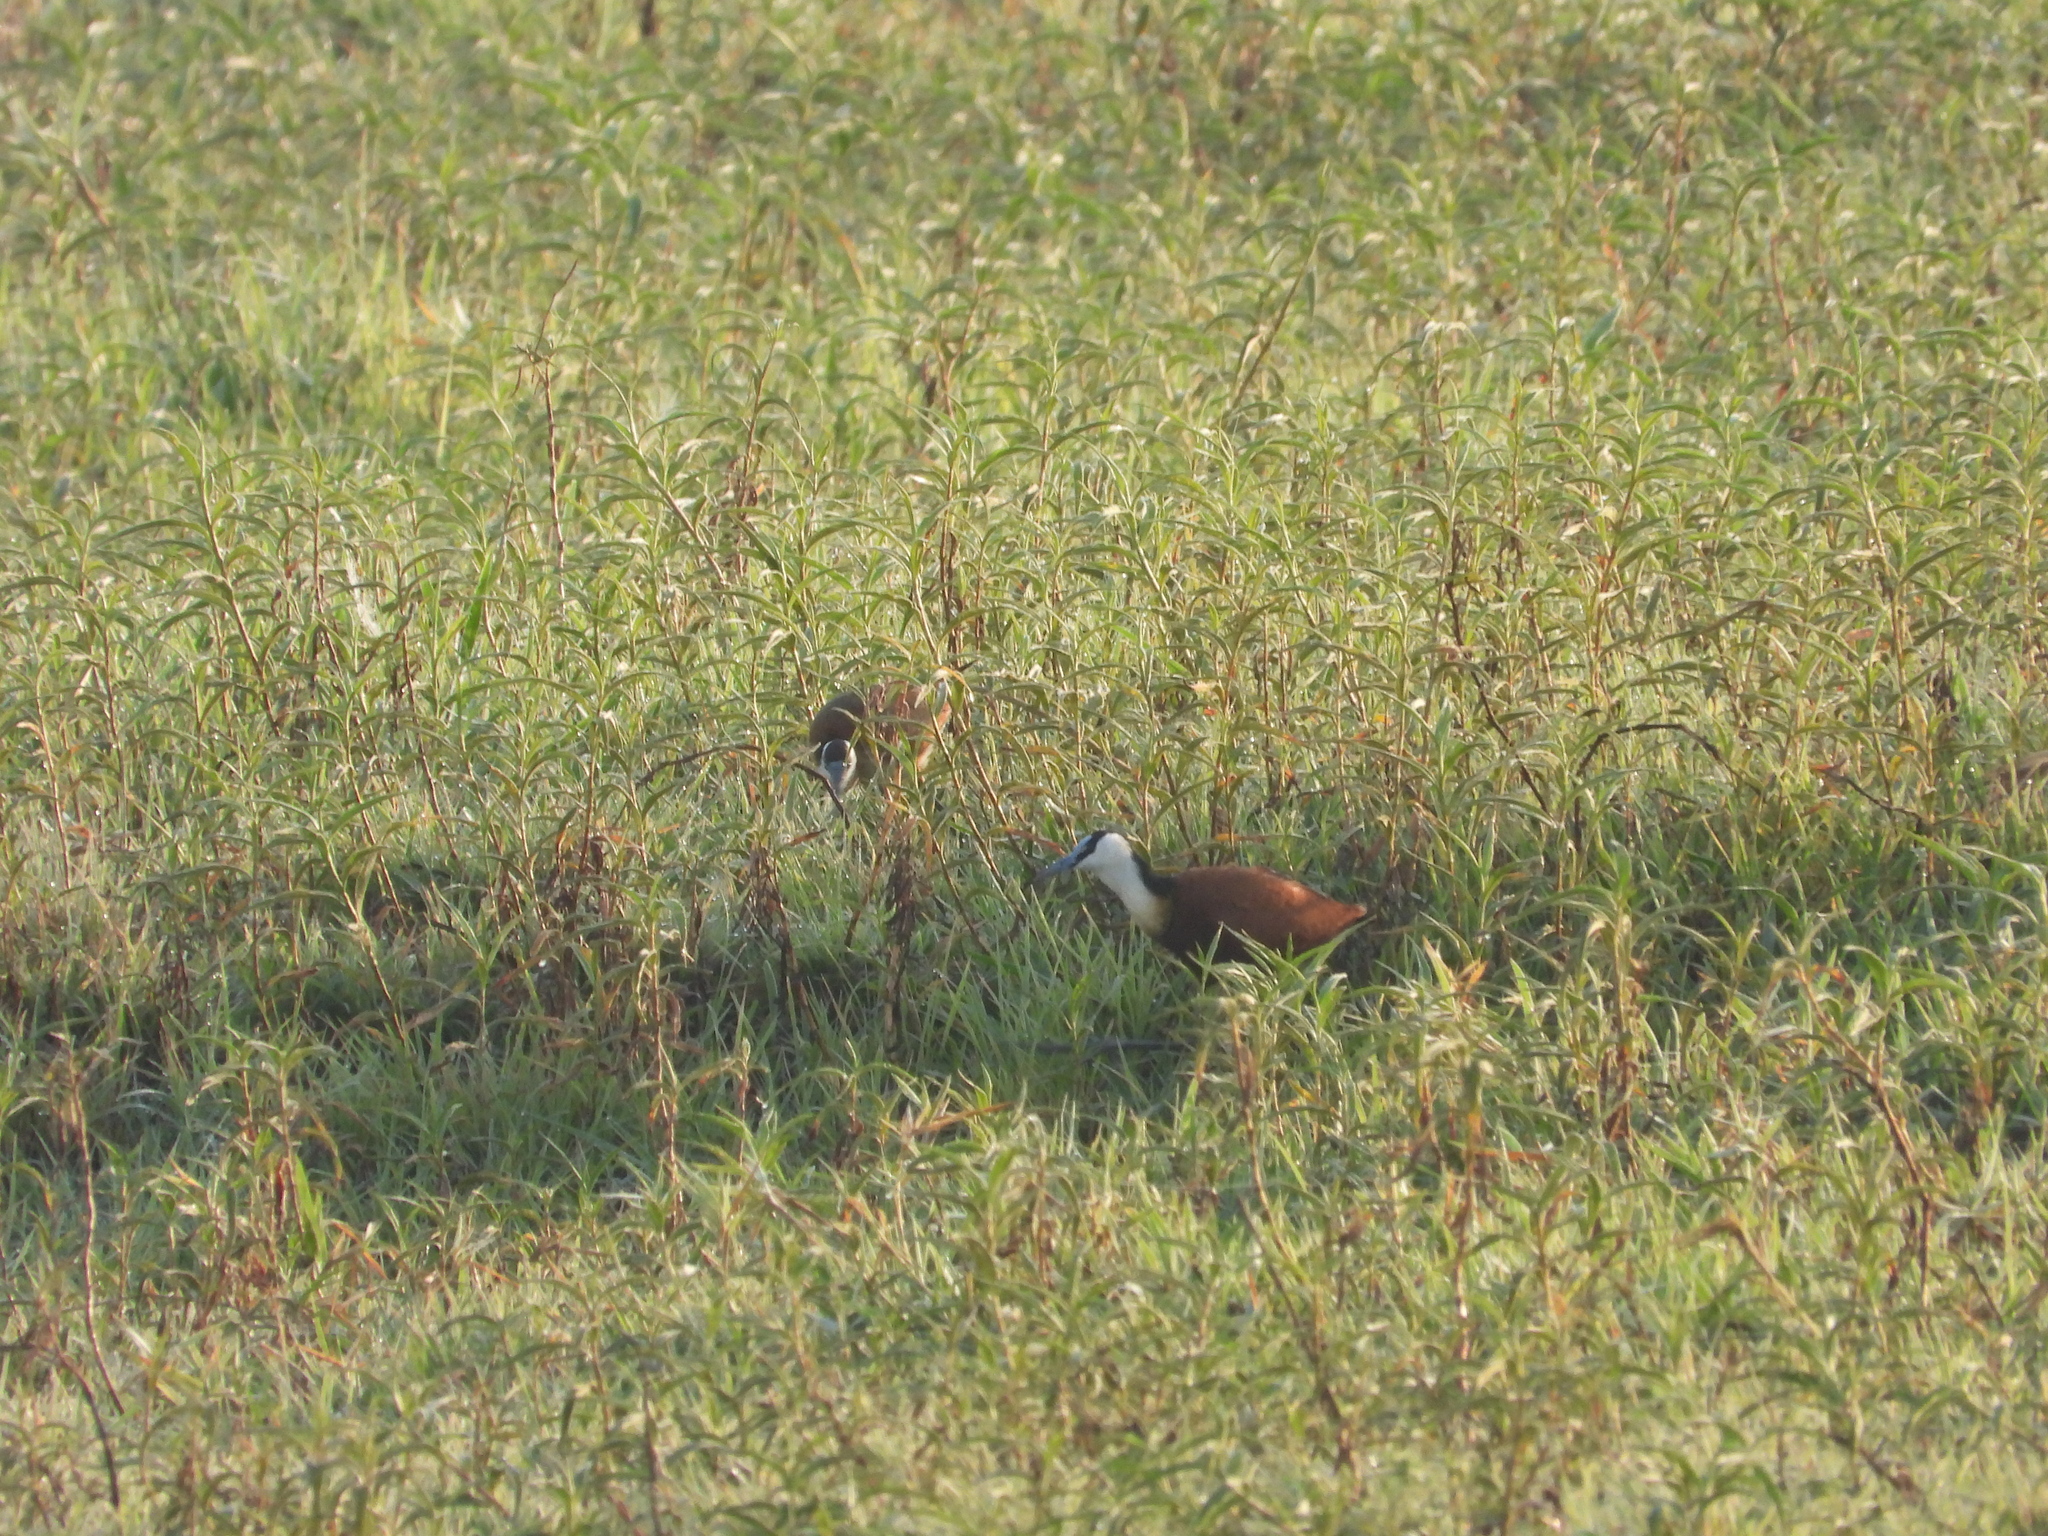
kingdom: Animalia
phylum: Chordata
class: Aves
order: Charadriiformes
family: Jacanidae
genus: Actophilornis
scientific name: Actophilornis africanus
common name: African jacana
